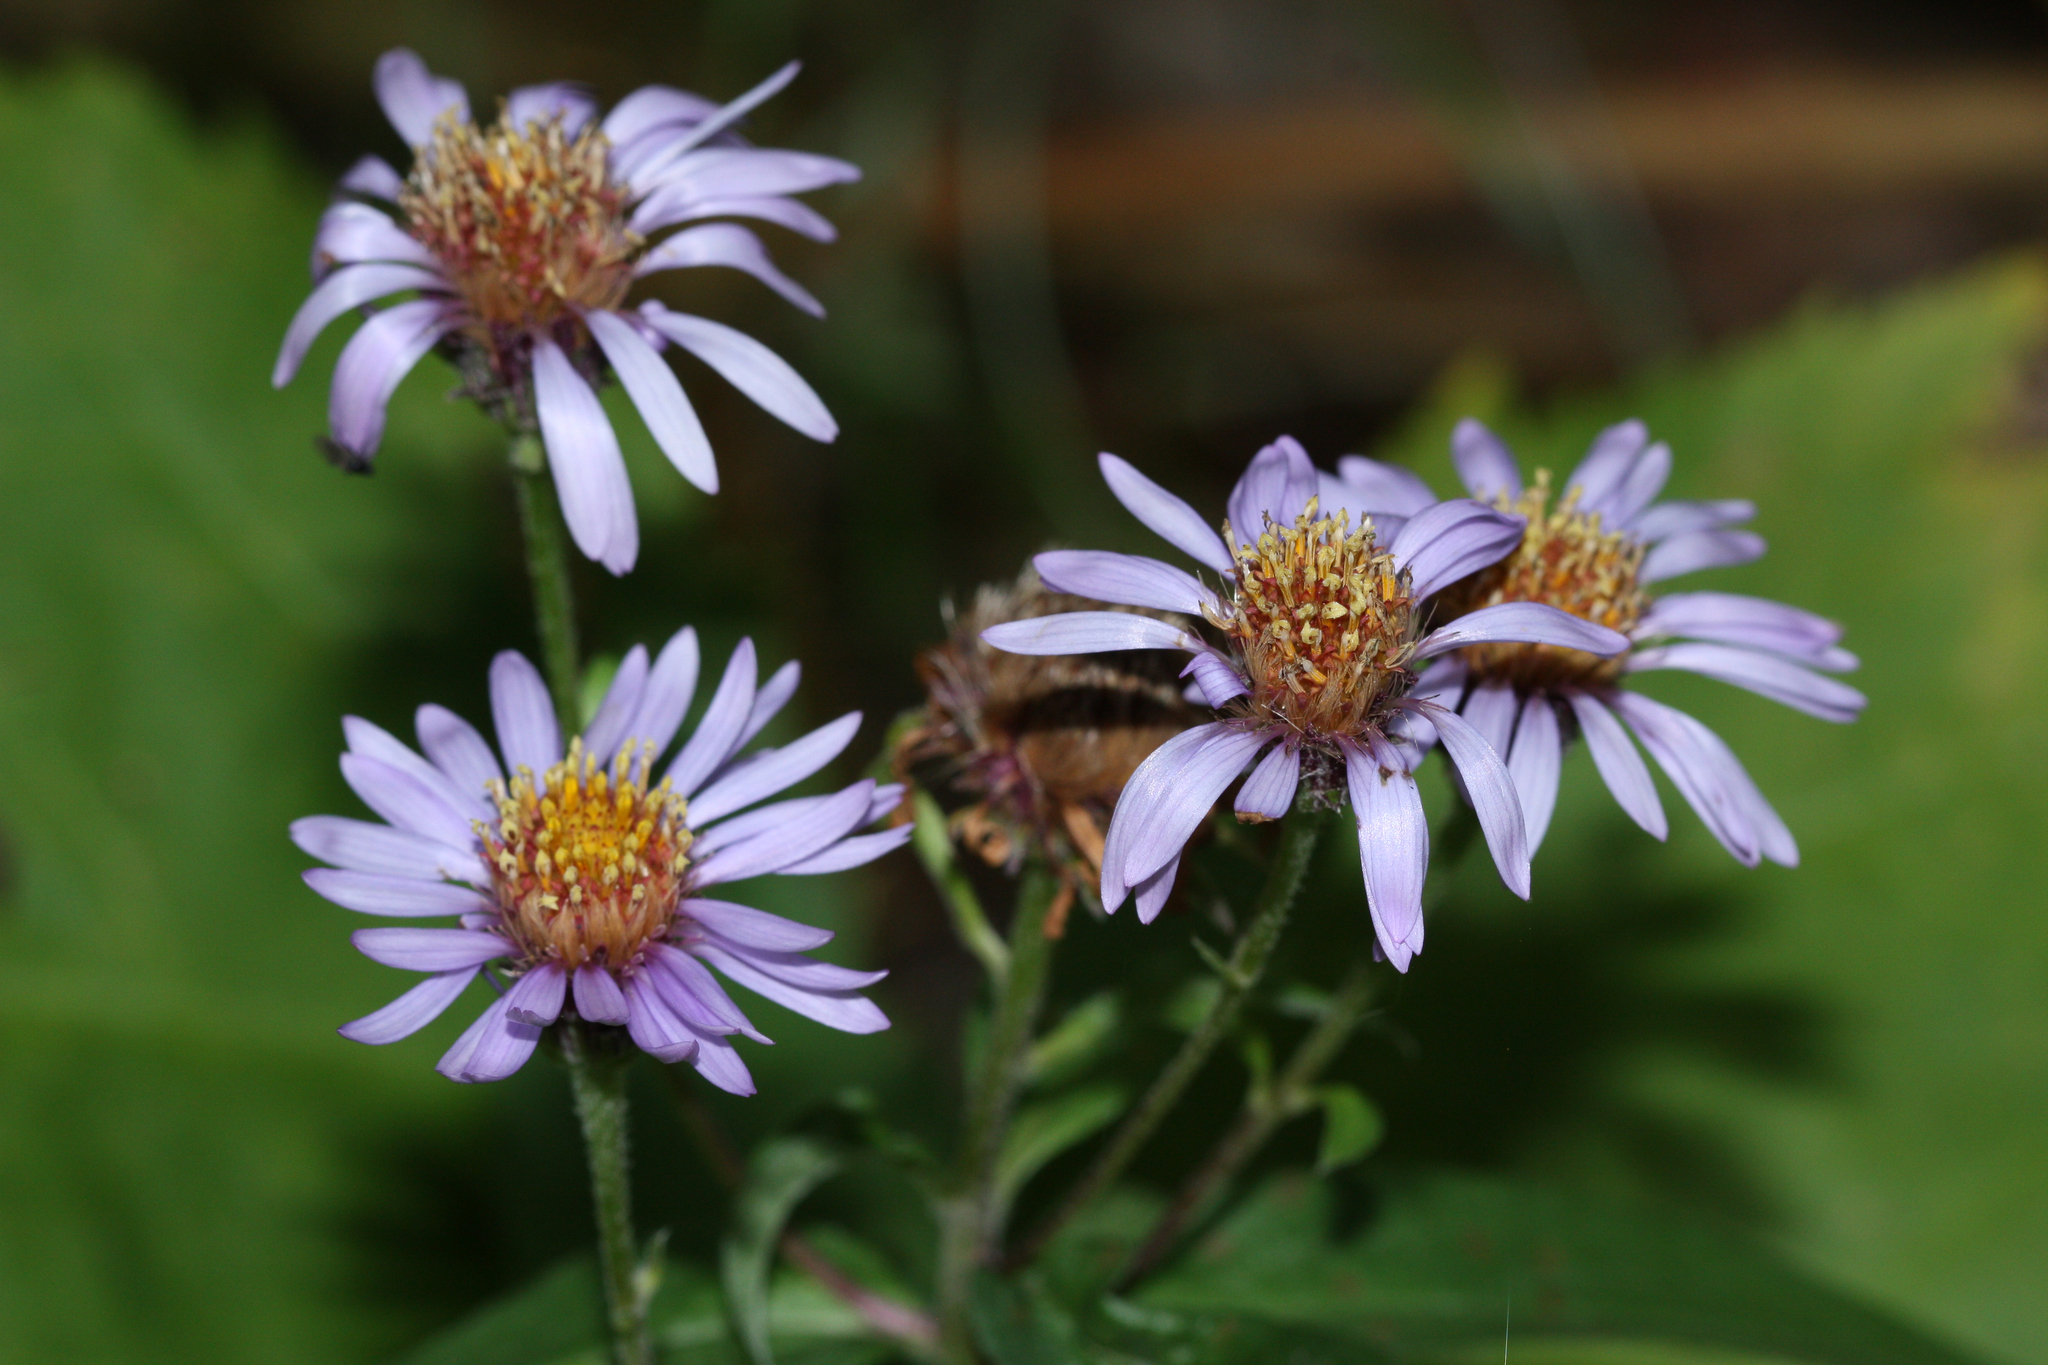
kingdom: Plantae
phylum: Tracheophyta
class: Magnoliopsida
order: Asterales
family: Asteraceae
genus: Eurybia
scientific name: Eurybia sibirica
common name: Arctic aster
